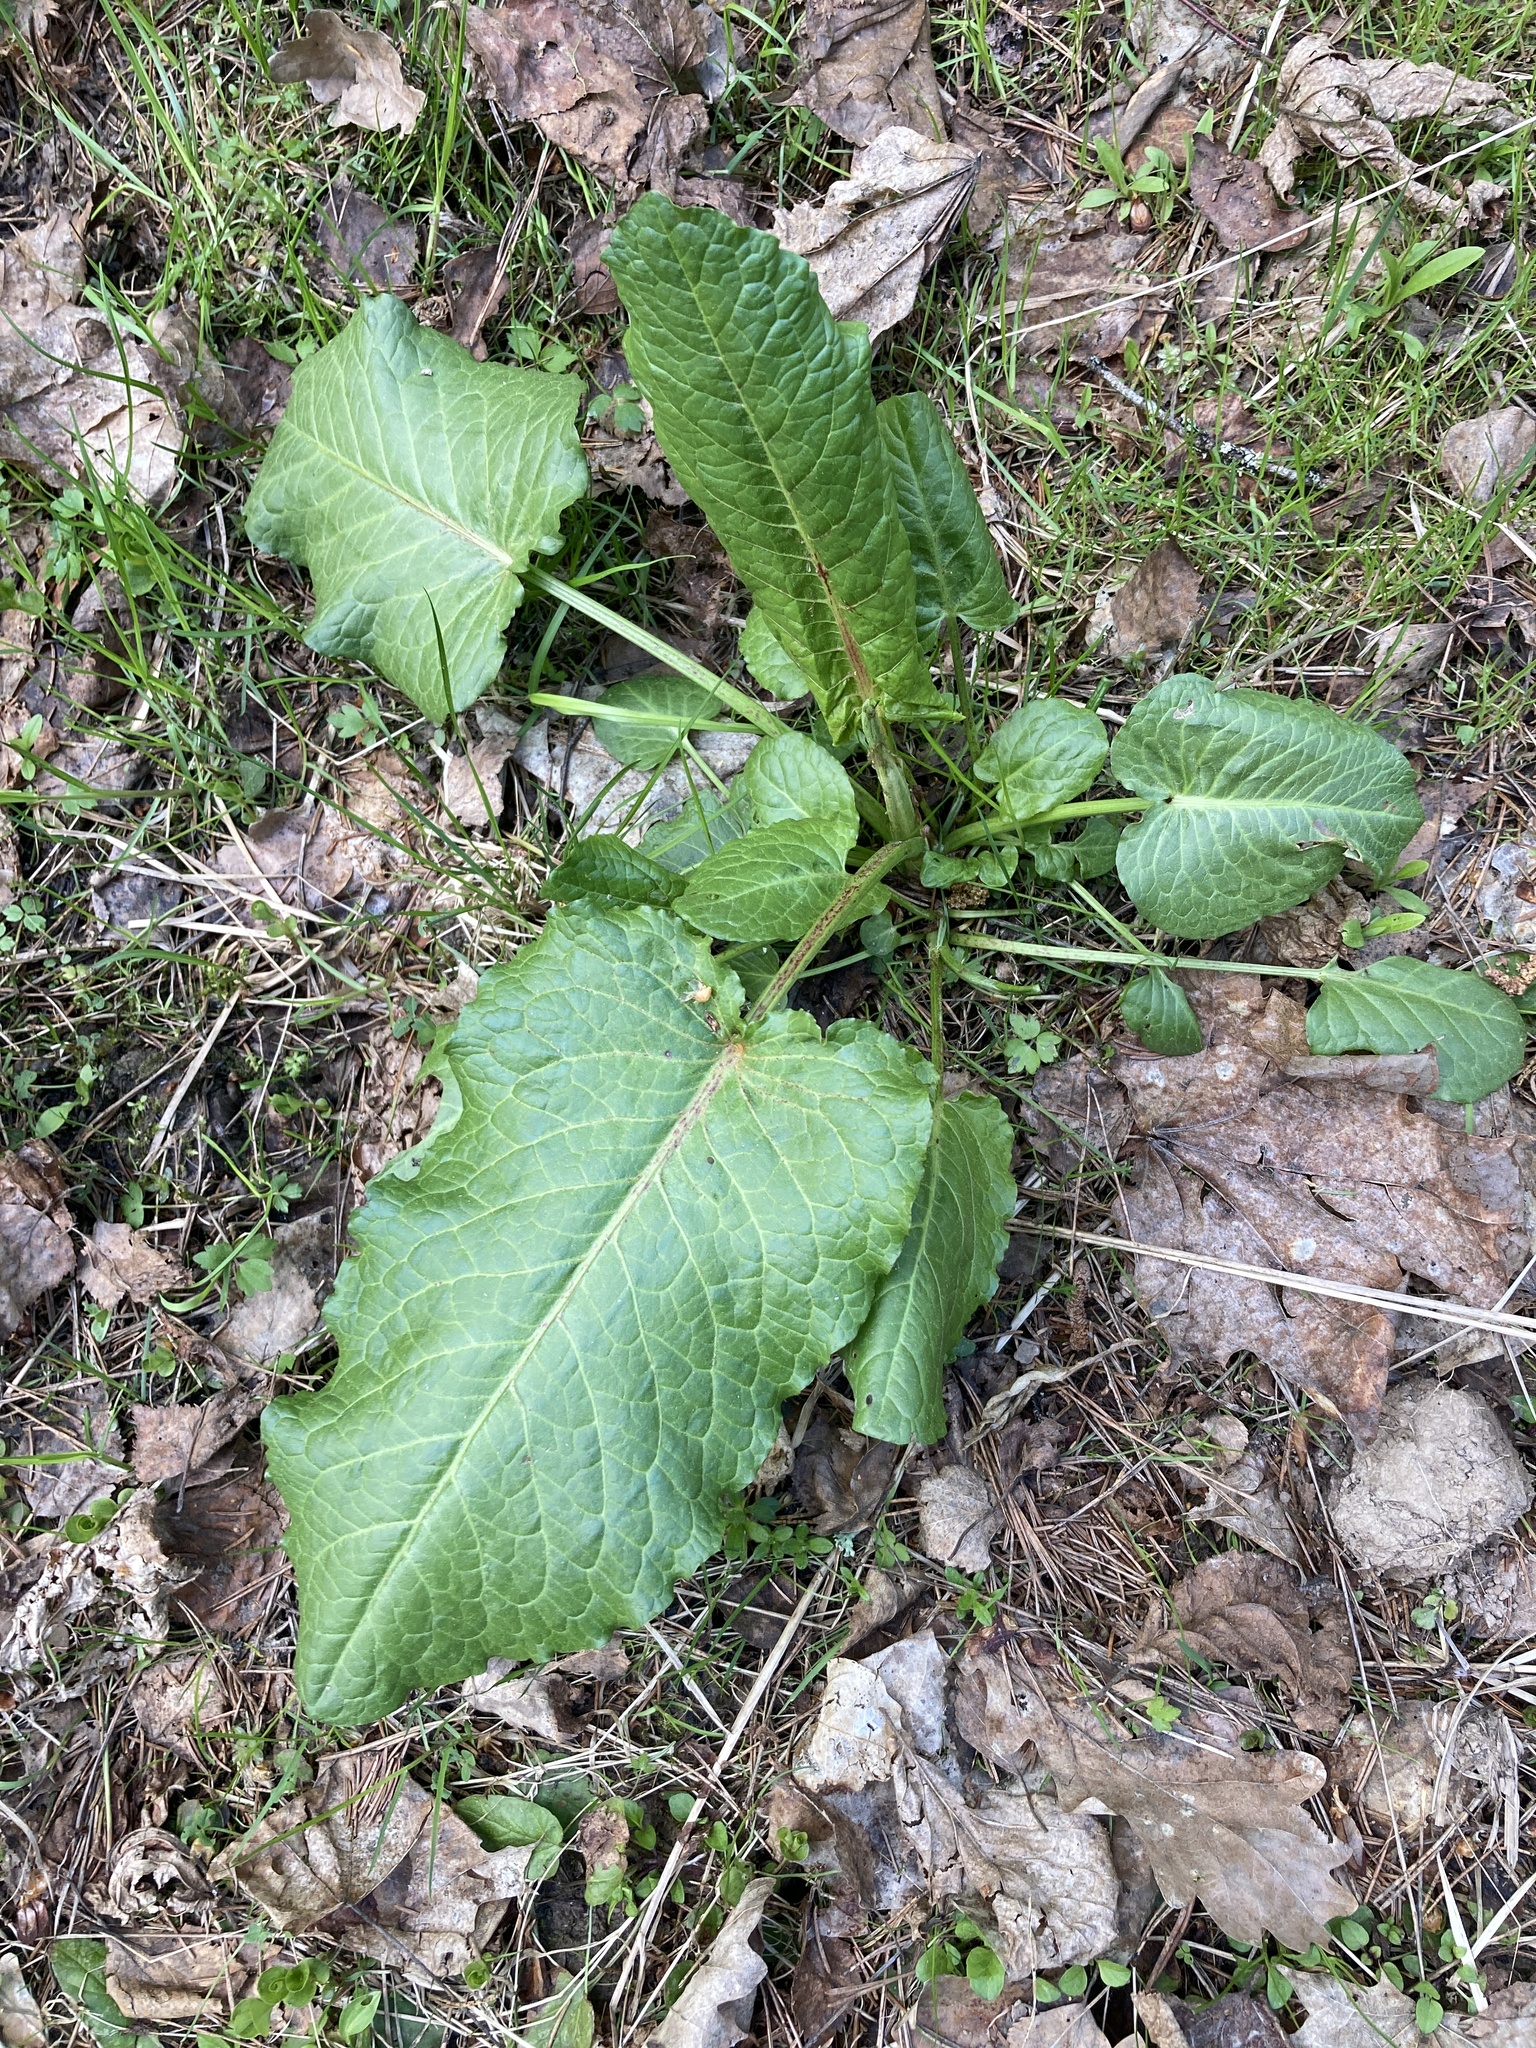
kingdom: Plantae
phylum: Tracheophyta
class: Magnoliopsida
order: Caryophyllales
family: Polygonaceae
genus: Rumex
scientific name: Rumex obtusifolius
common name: Bitter dock
